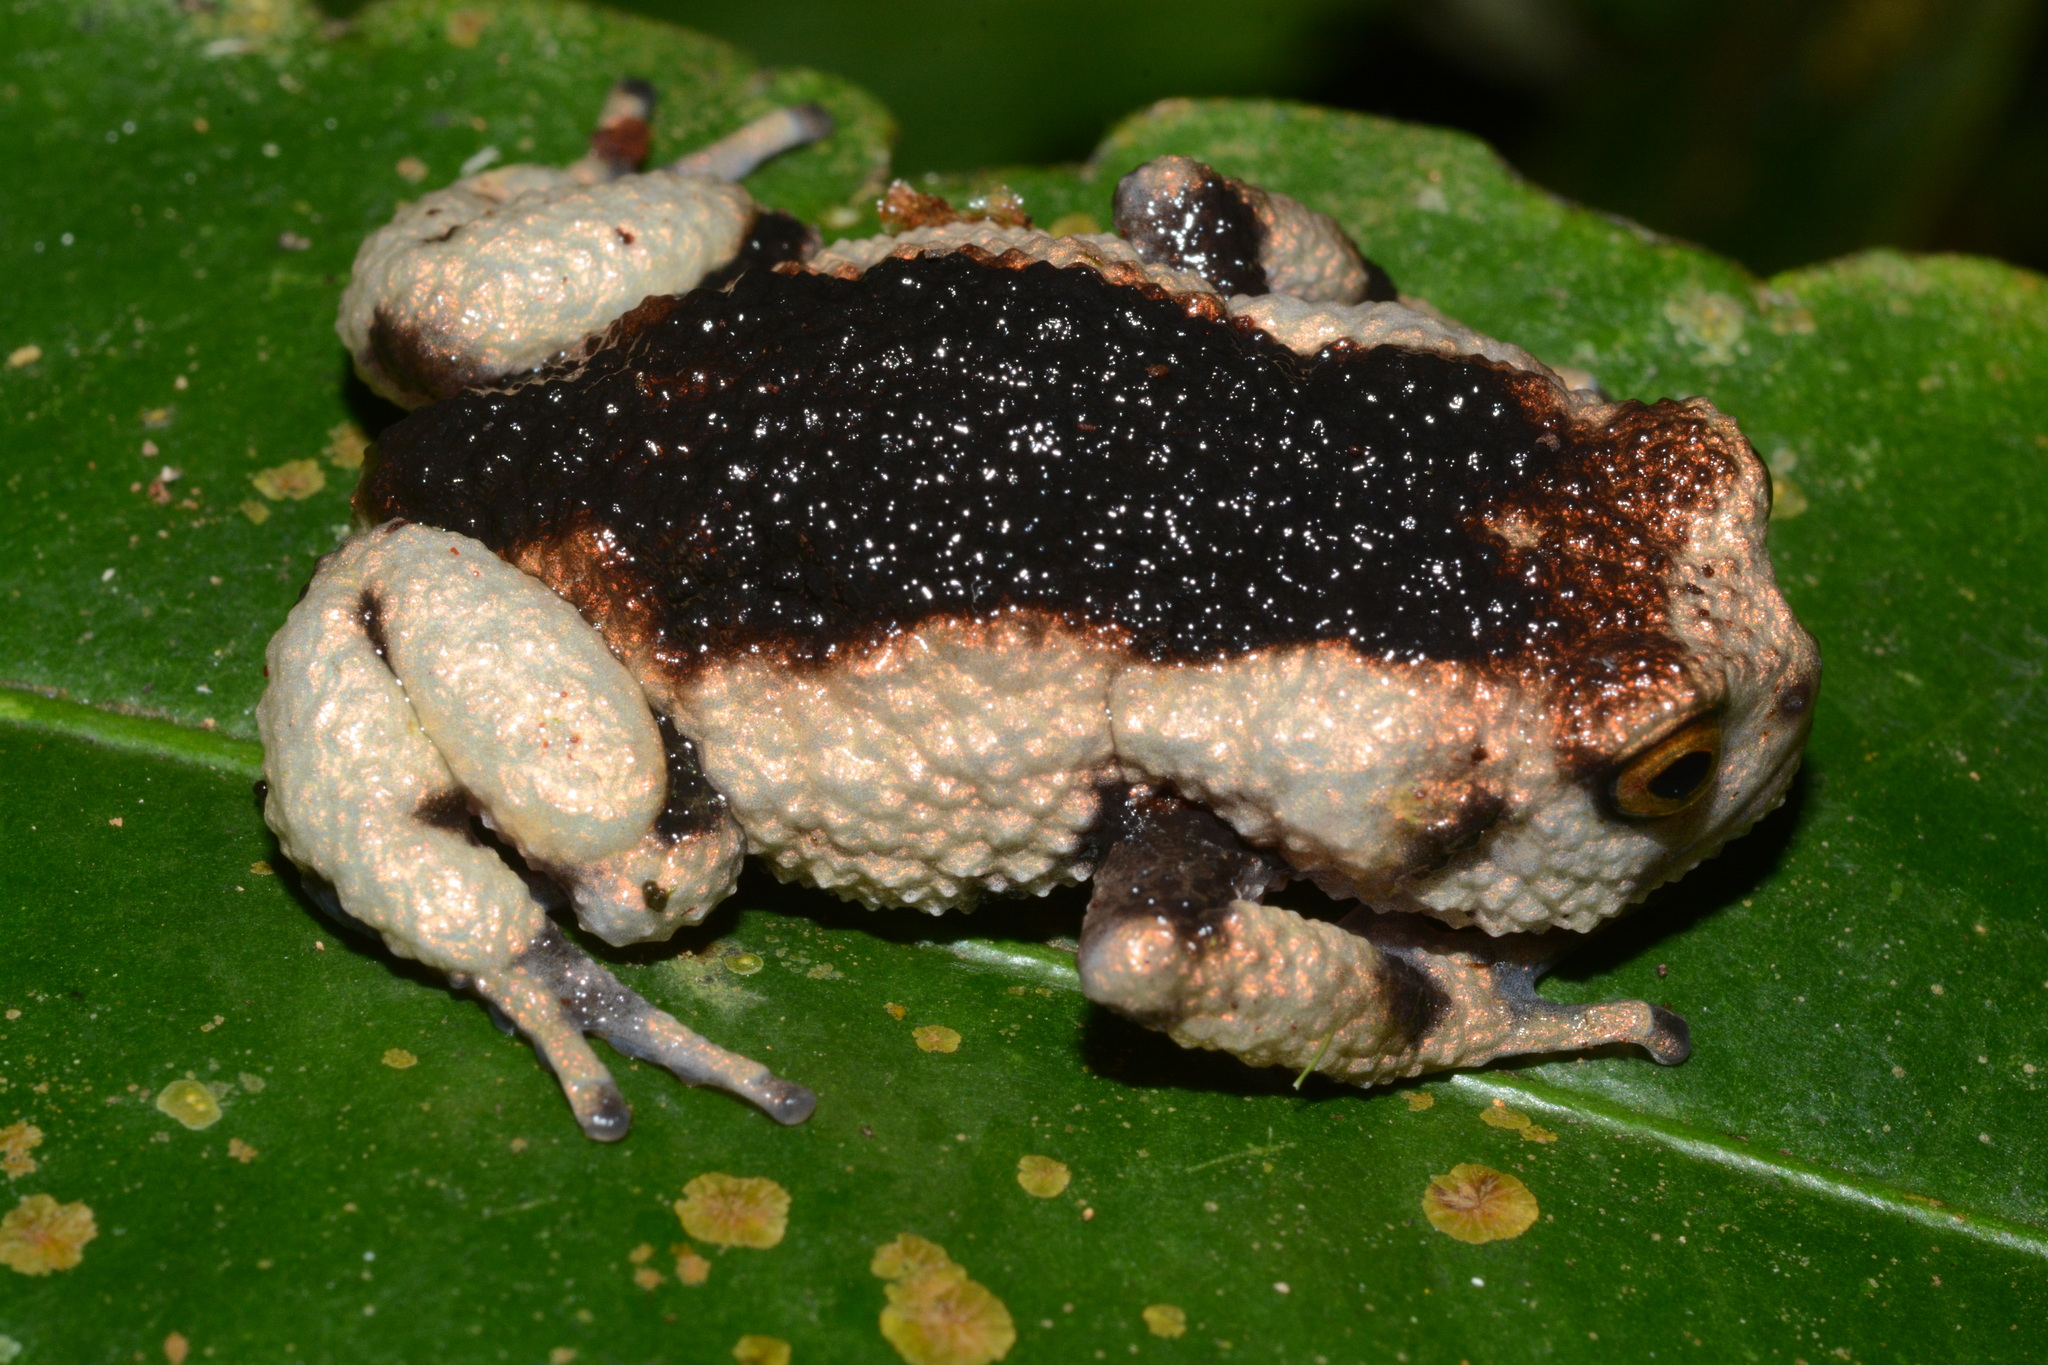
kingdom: Animalia
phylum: Chordata
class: Amphibia
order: Anura
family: Brevicipitidae
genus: Callulina
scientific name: Callulina meteora
